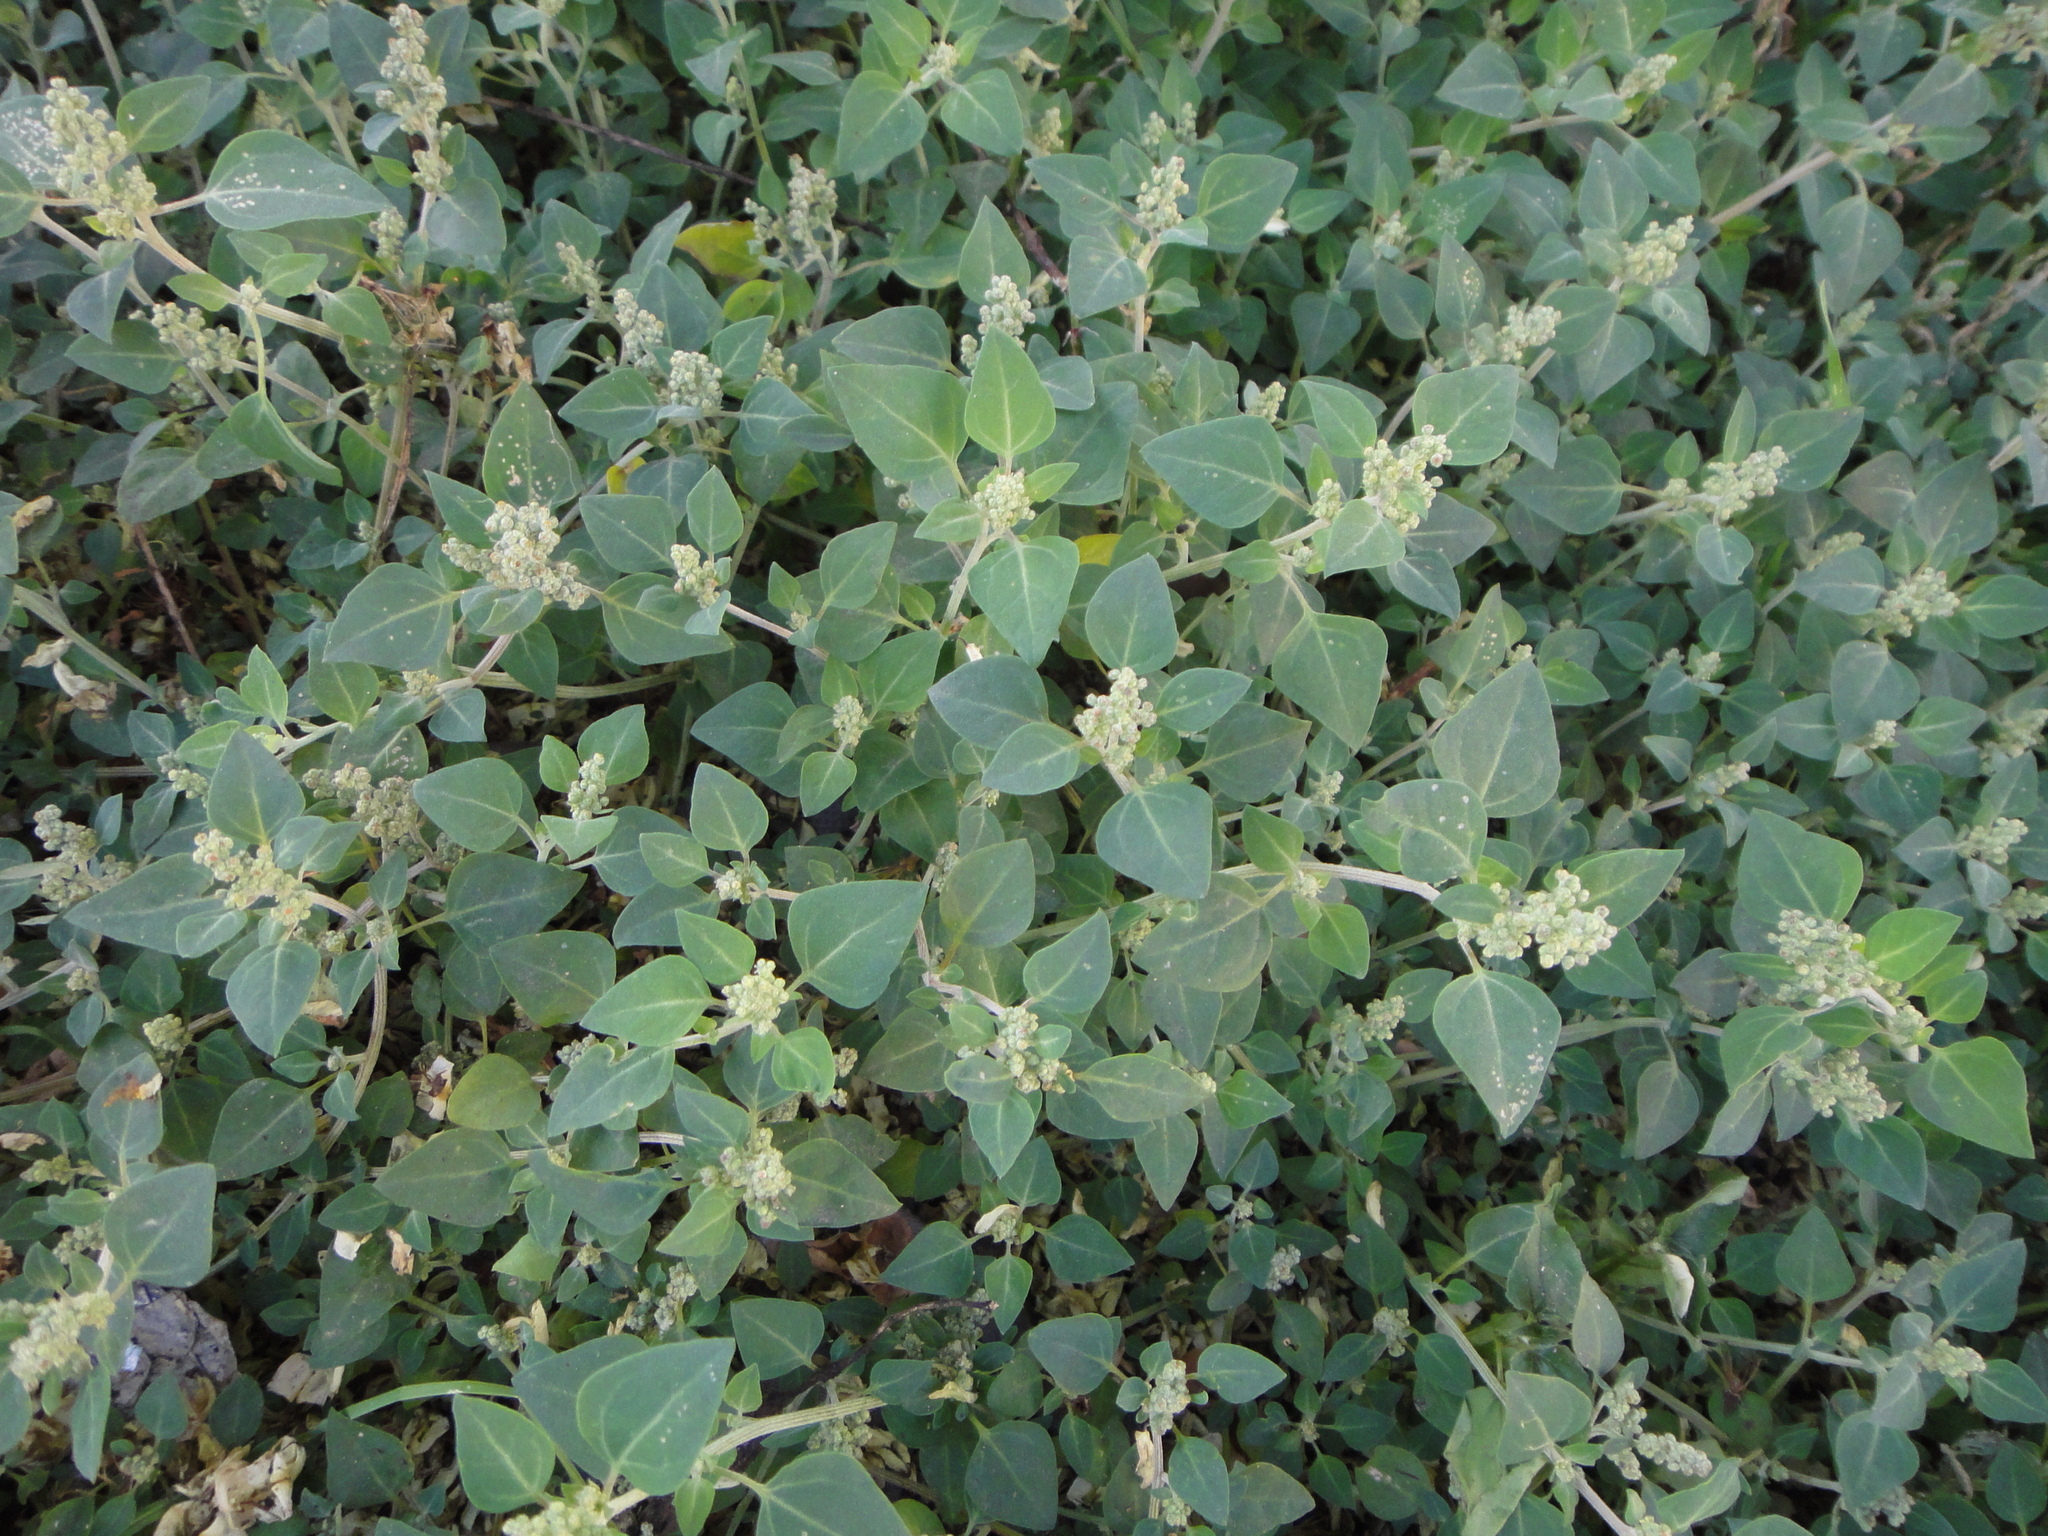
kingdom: Plantae
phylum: Tracheophyta
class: Magnoliopsida
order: Caryophyllales
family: Amaranthaceae
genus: Chenopodium
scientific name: Chenopodium vulvaria
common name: Stinking goosefoot
